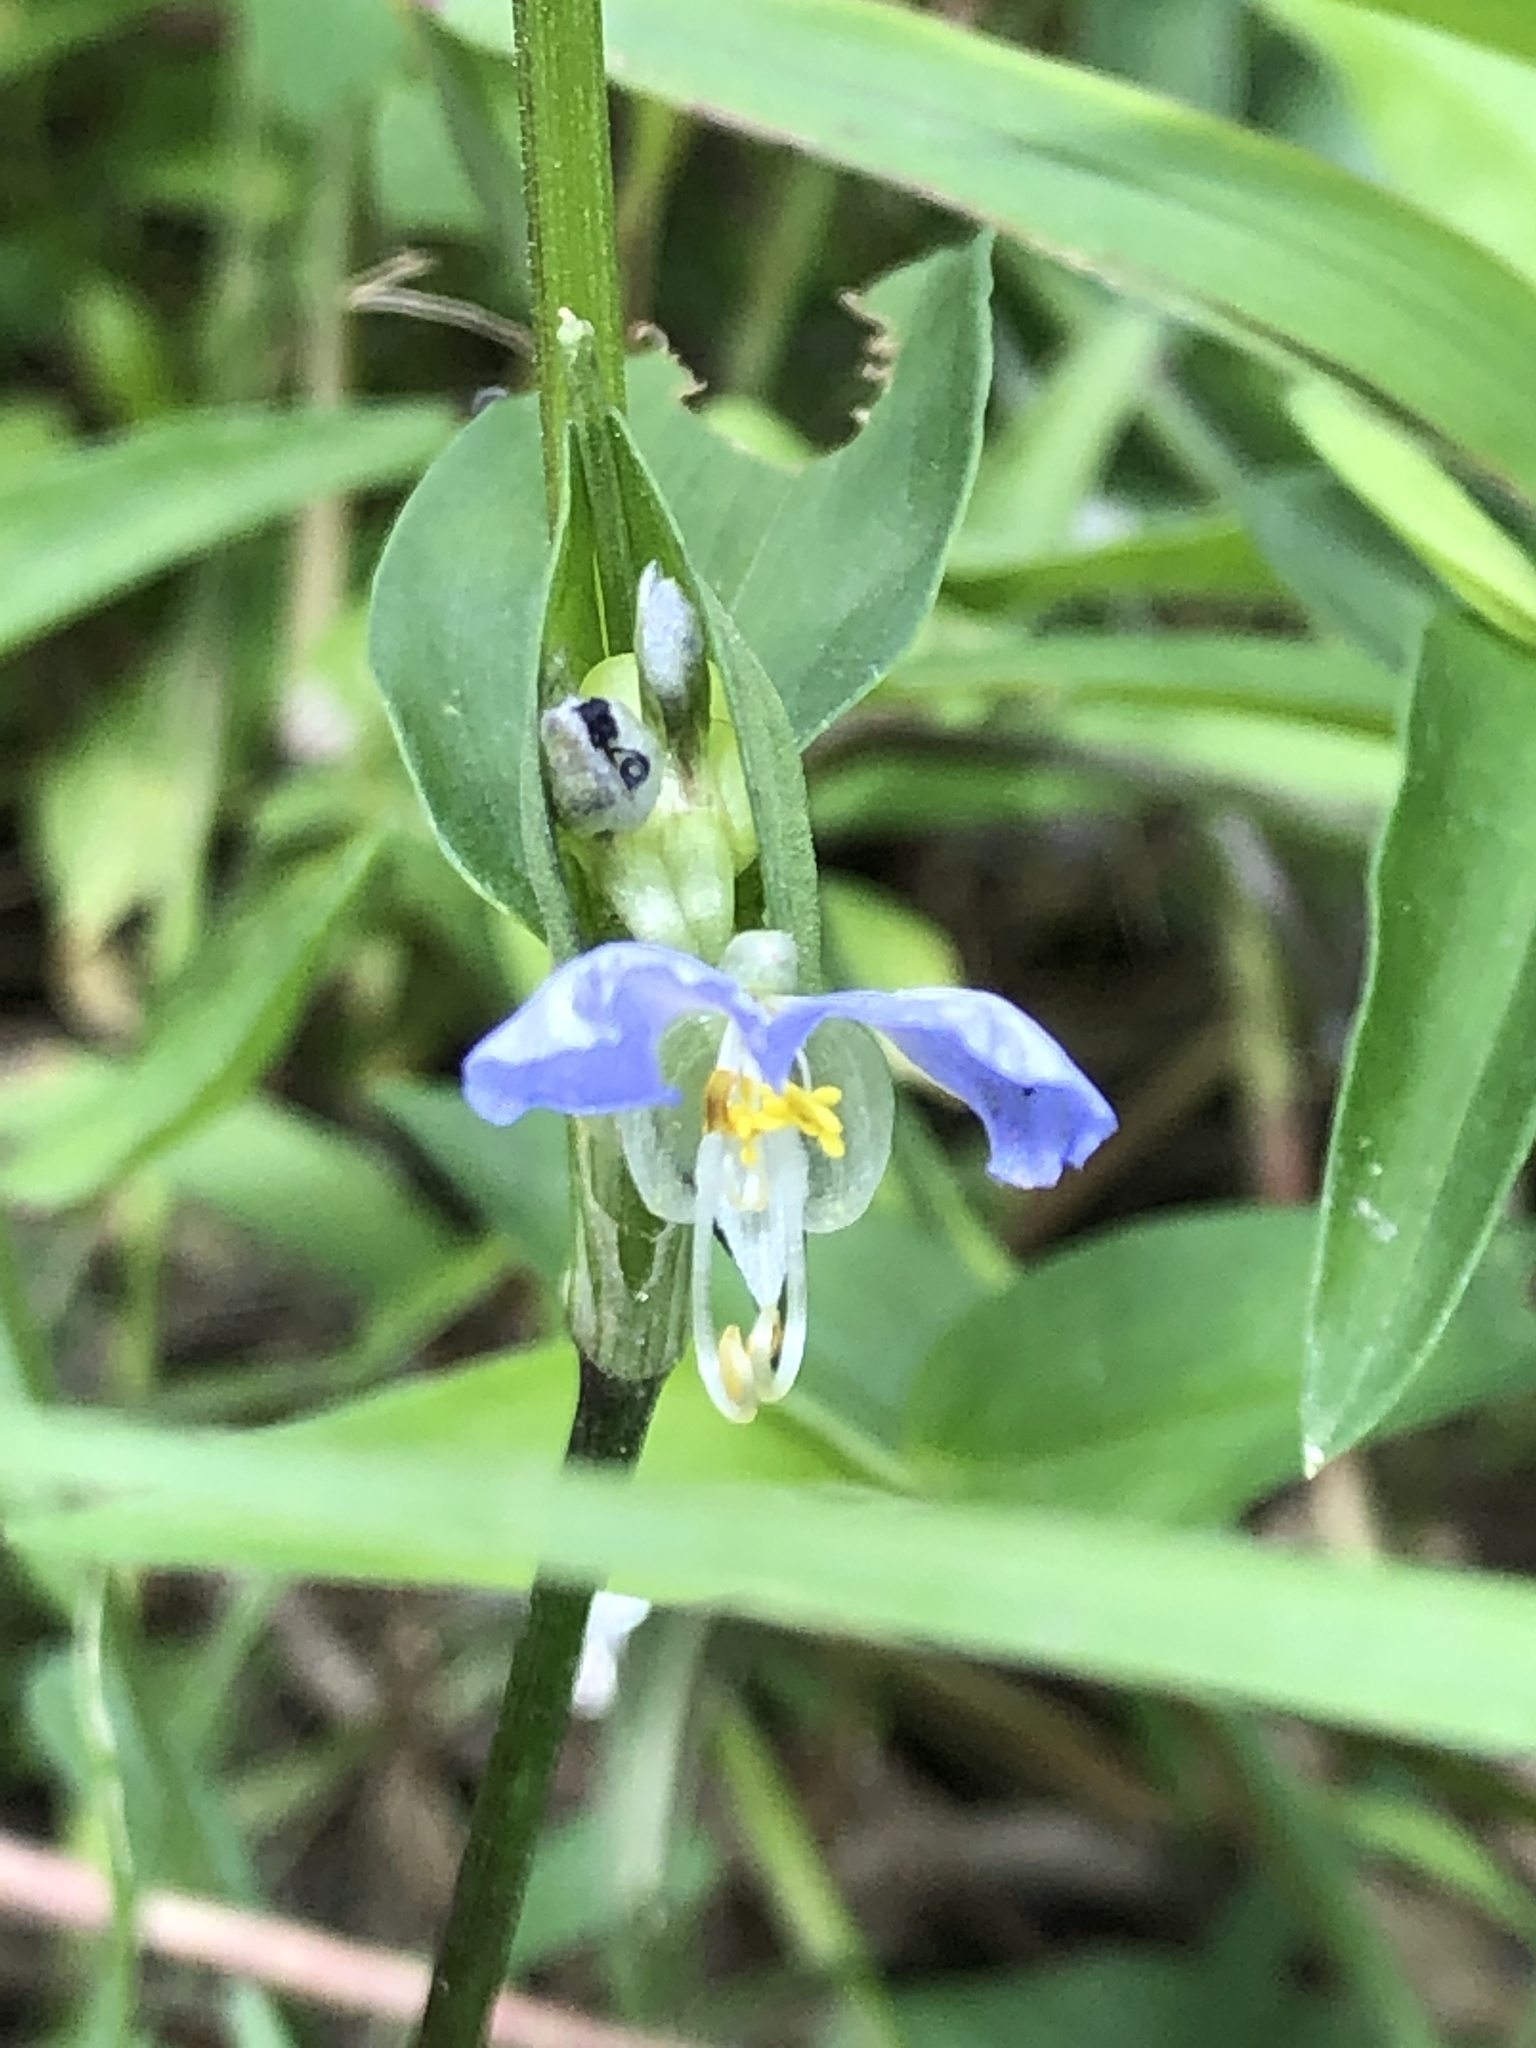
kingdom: Plantae
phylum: Tracheophyta
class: Liliopsida
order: Commelinales
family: Commelinaceae
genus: Commelina
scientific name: Commelina communis
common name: Asiatic dayflower
